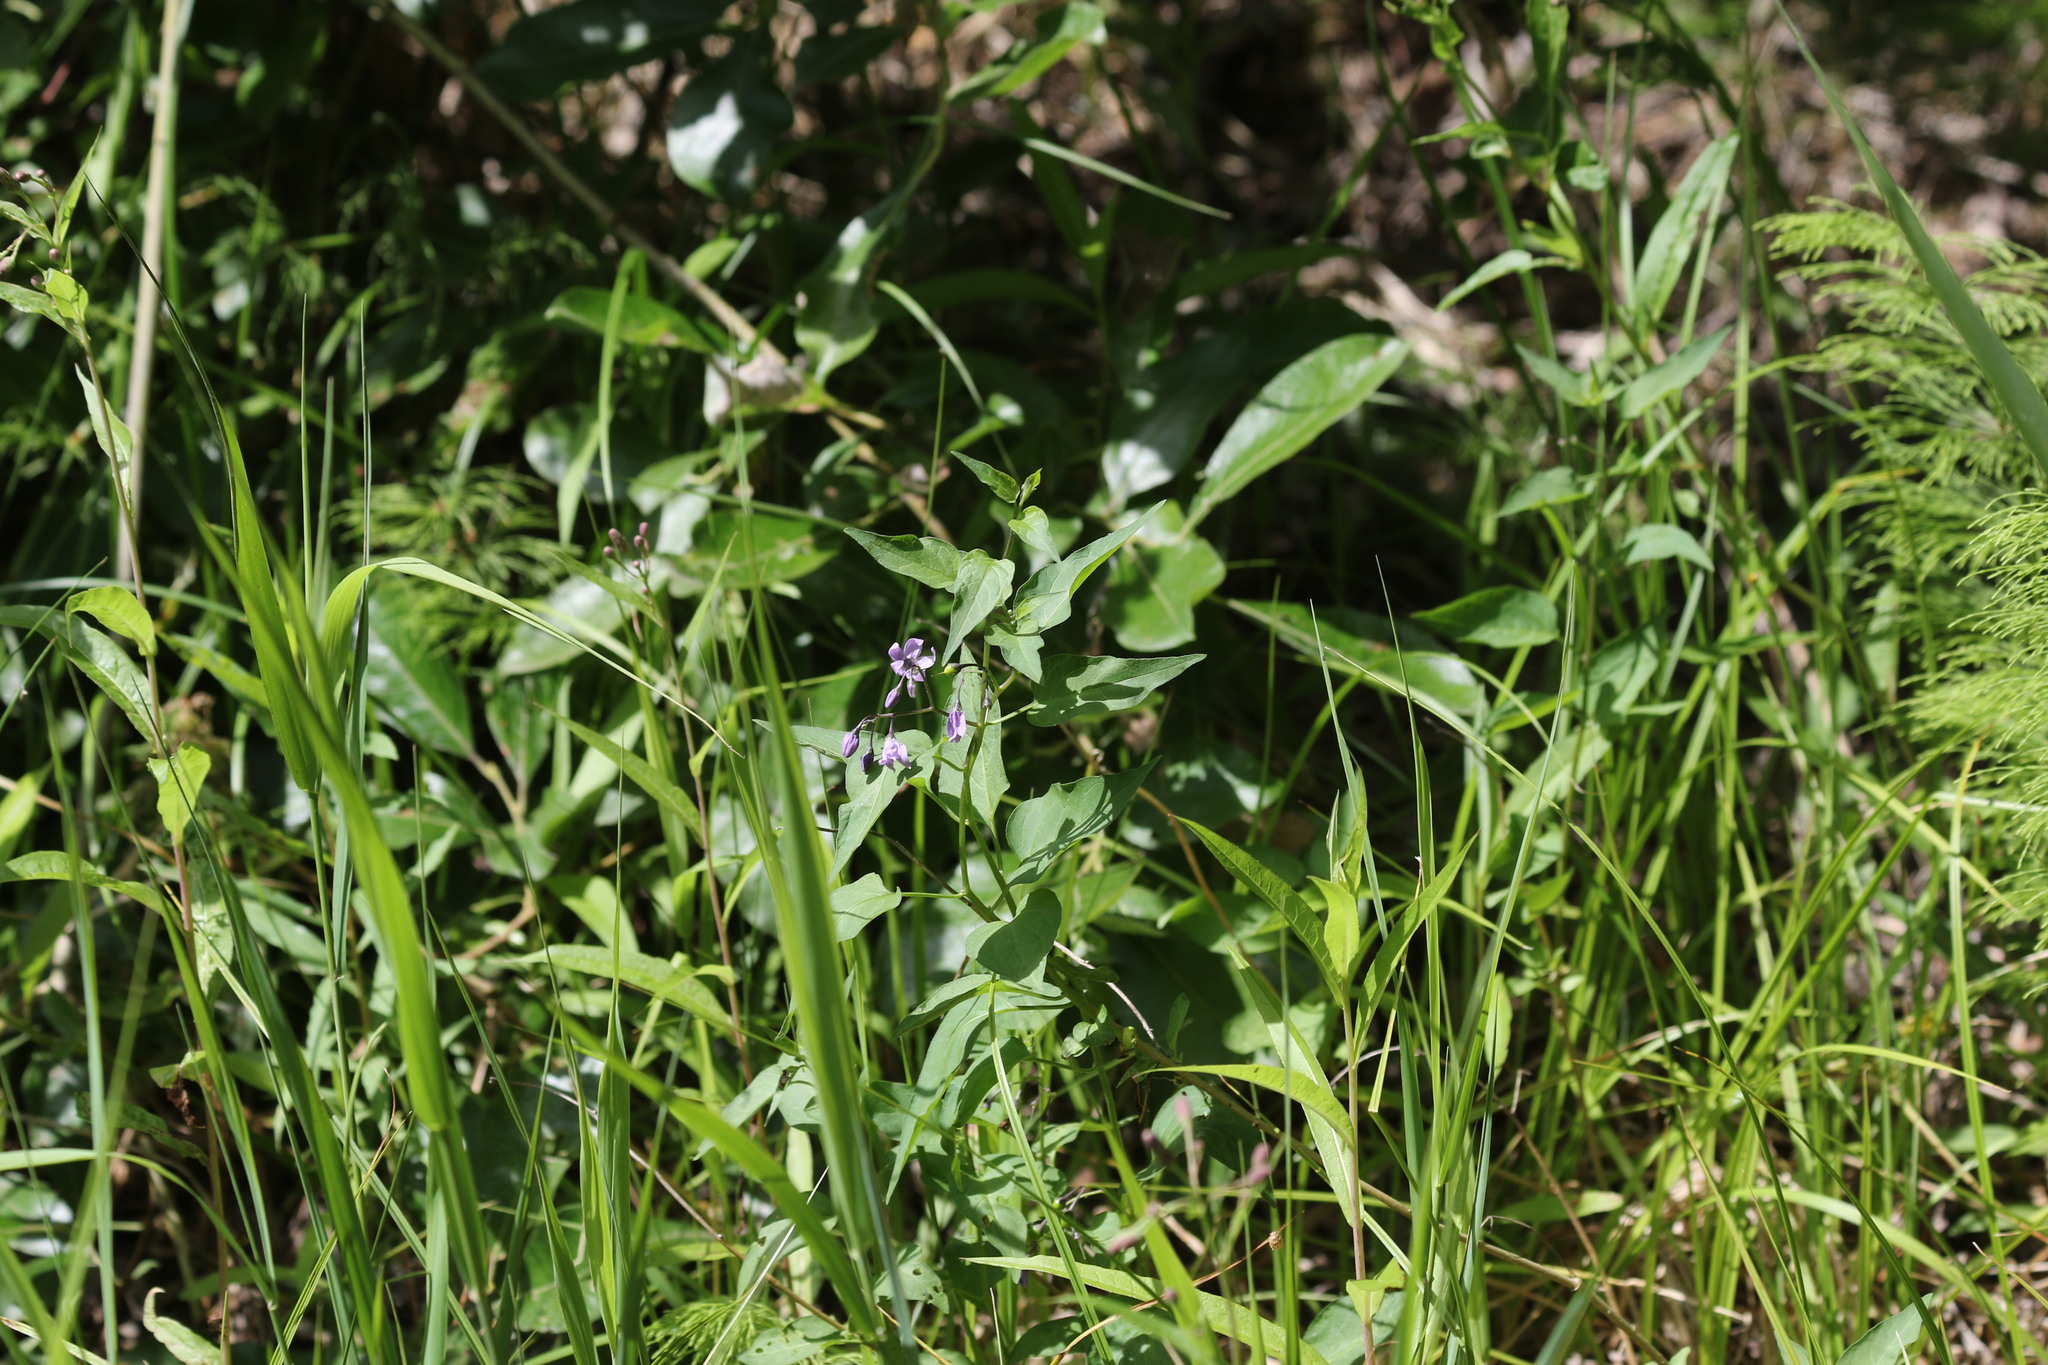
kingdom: Plantae
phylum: Tracheophyta
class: Magnoliopsida
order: Solanales
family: Solanaceae
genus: Solanum
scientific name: Solanum dulcamara
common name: Climbing nightshade
